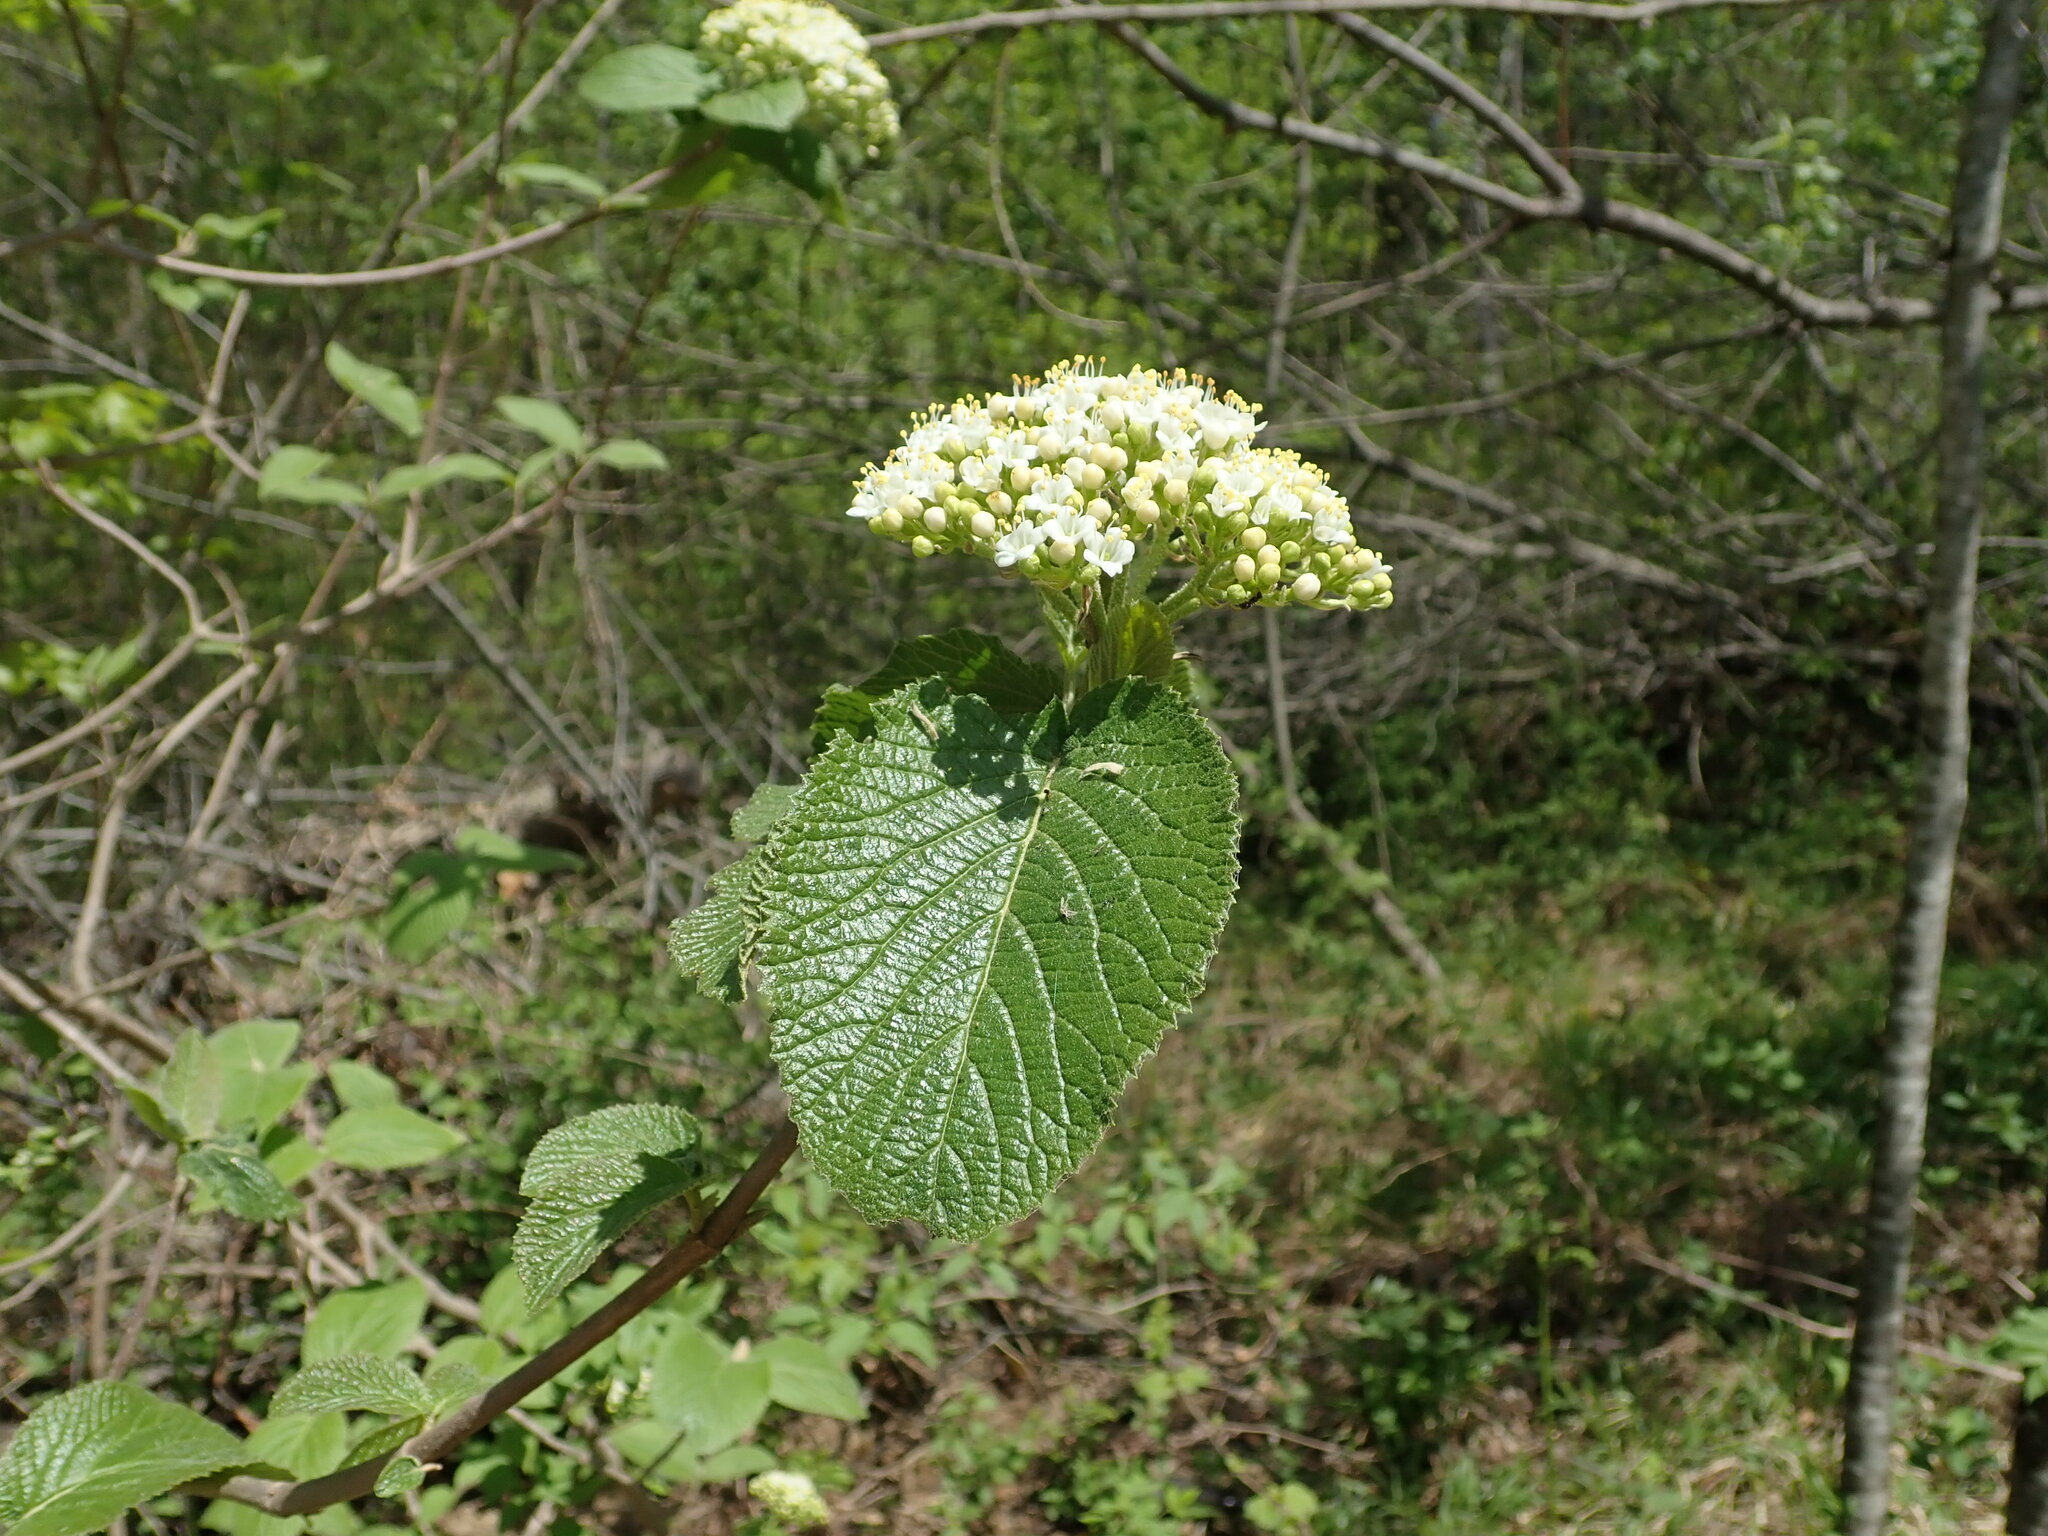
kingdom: Plantae
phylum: Tracheophyta
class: Magnoliopsida
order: Dipsacales
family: Viburnaceae
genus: Viburnum
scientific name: Viburnum lantana
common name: Wayfaring tree
